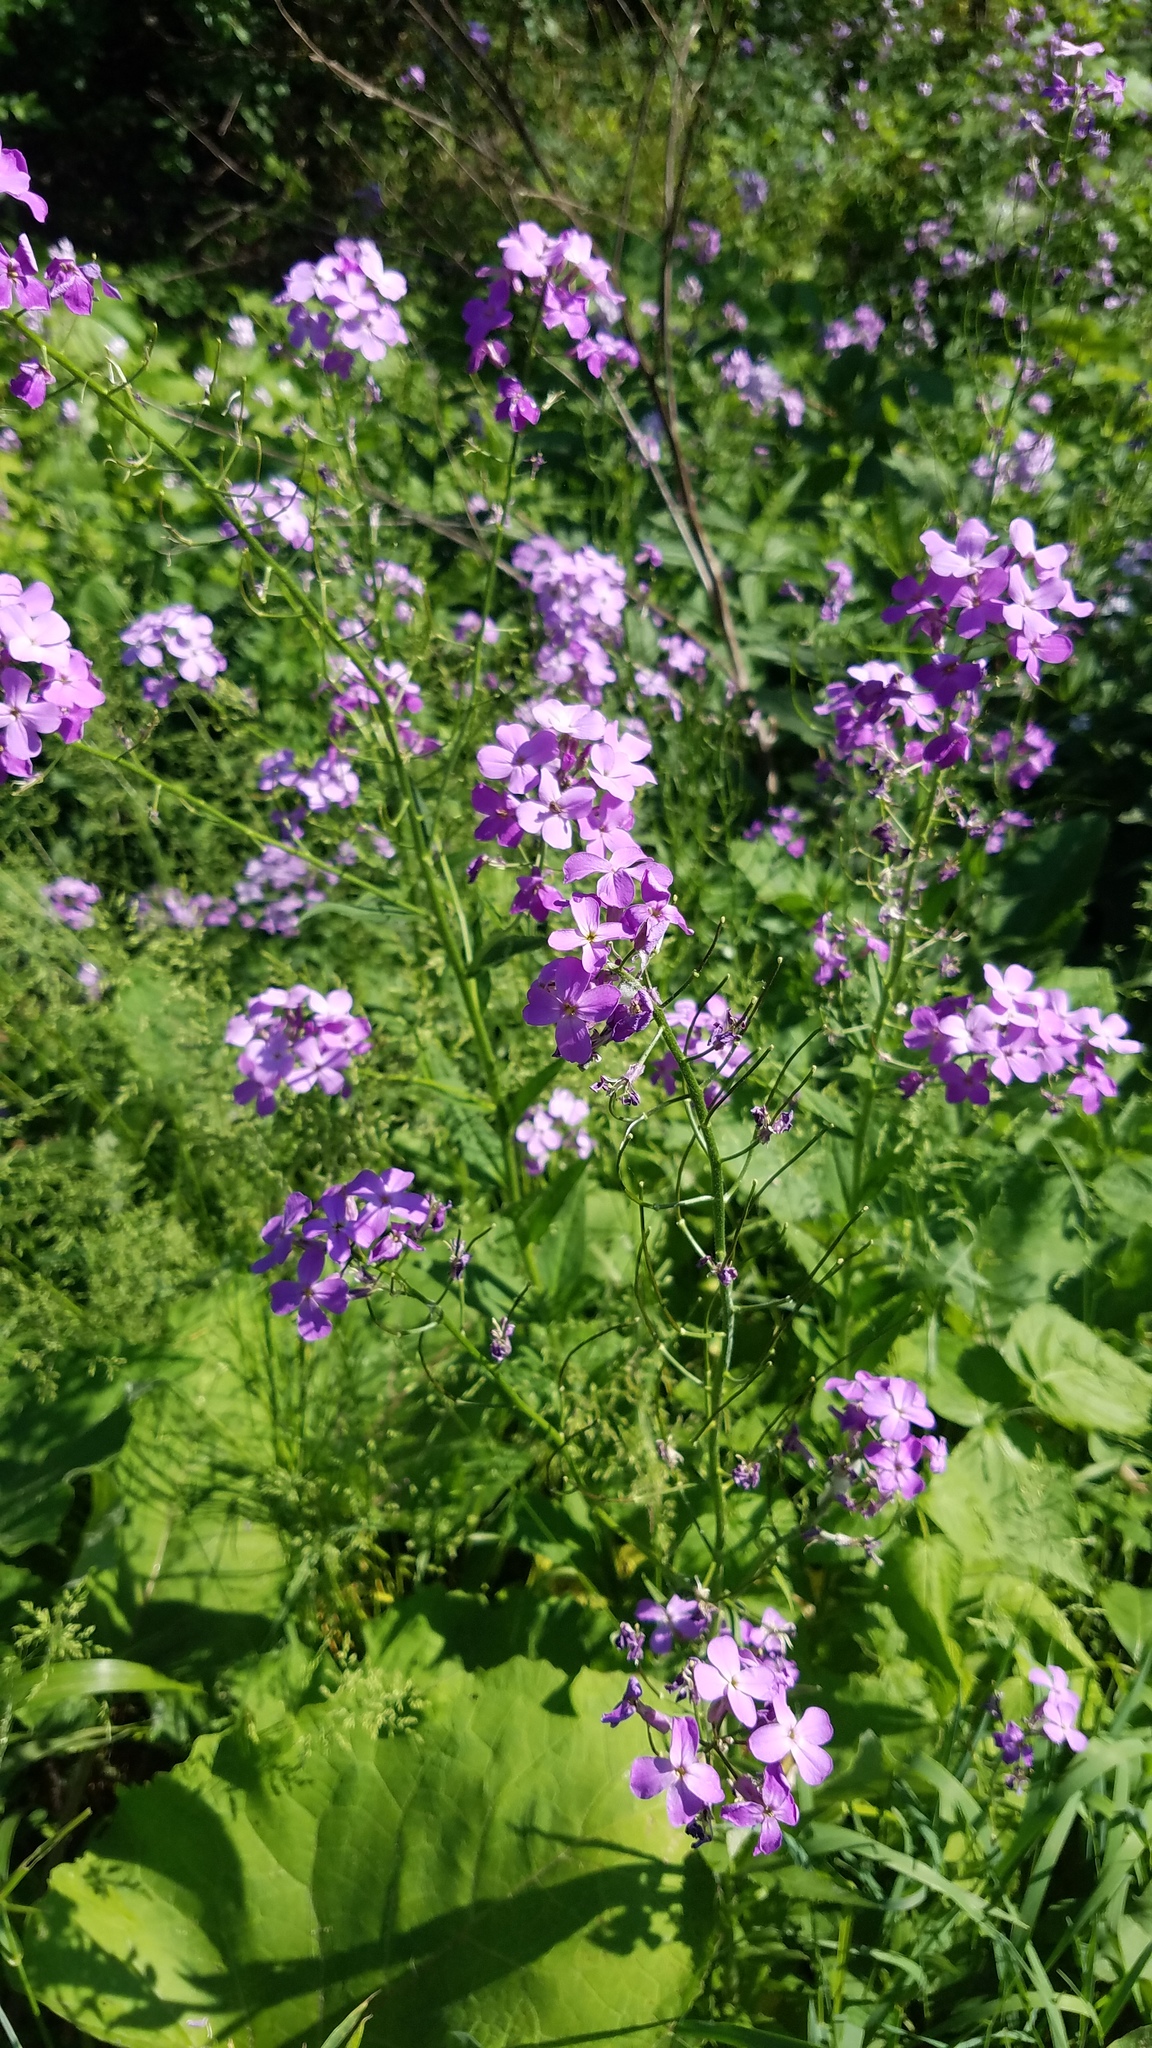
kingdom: Plantae
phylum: Tracheophyta
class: Magnoliopsida
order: Brassicales
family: Brassicaceae
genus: Hesperis
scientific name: Hesperis matronalis
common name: Dame's-violet
